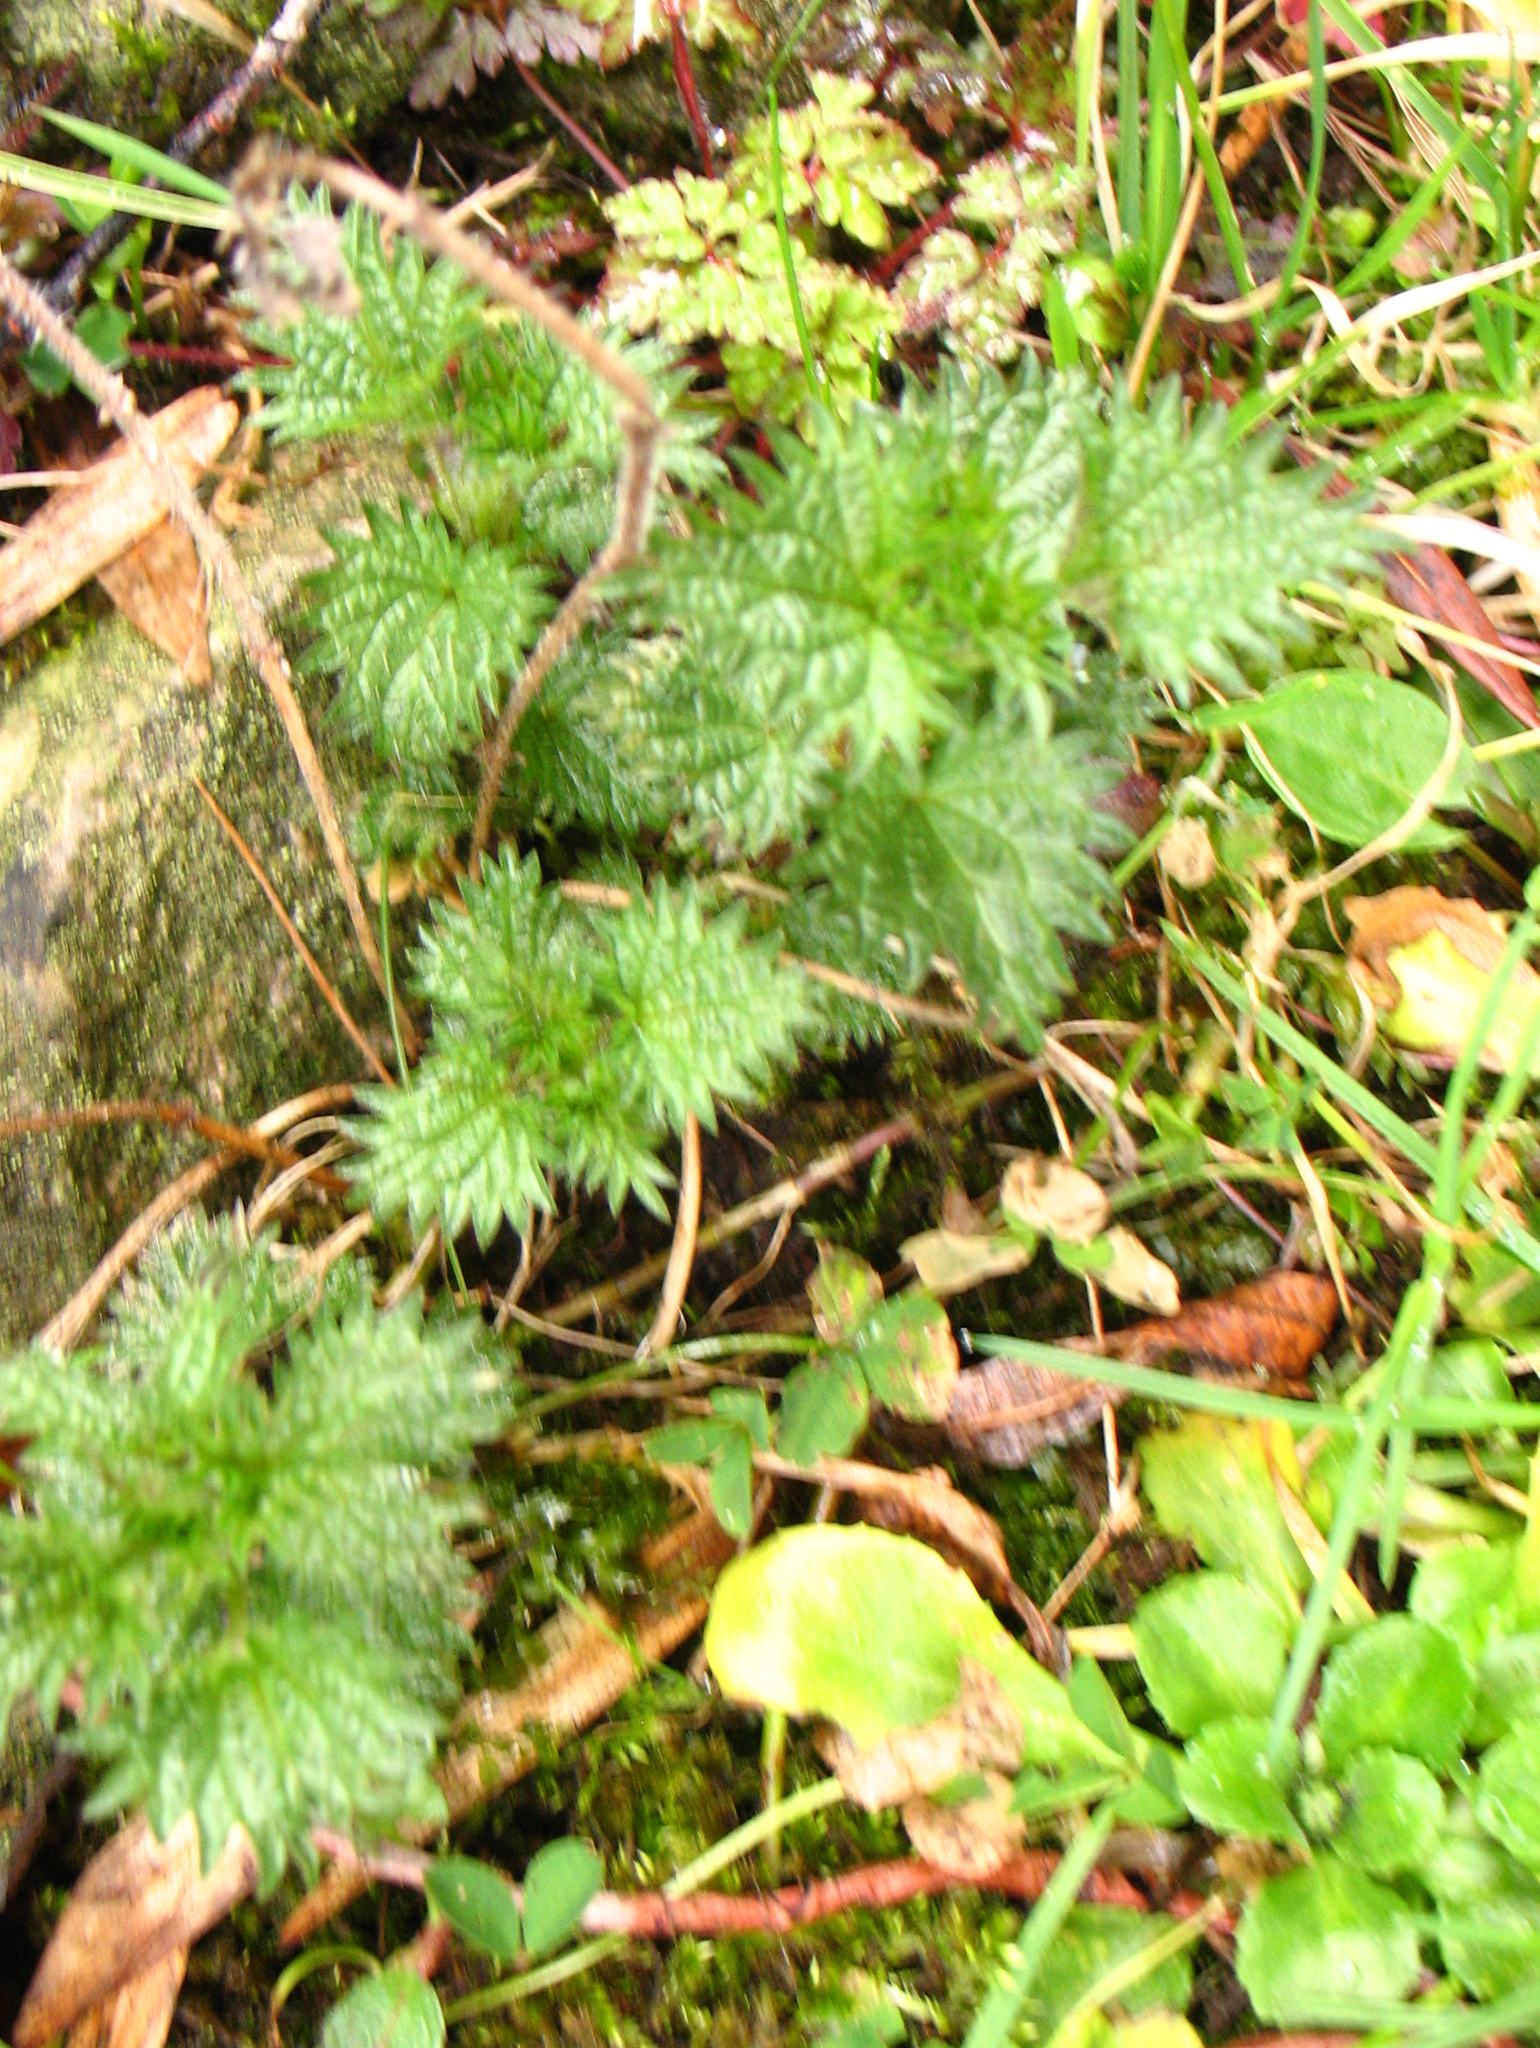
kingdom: Plantae
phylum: Tracheophyta
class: Magnoliopsida
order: Rosales
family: Urticaceae
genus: Urtica
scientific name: Urtica dioica
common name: Common nettle
